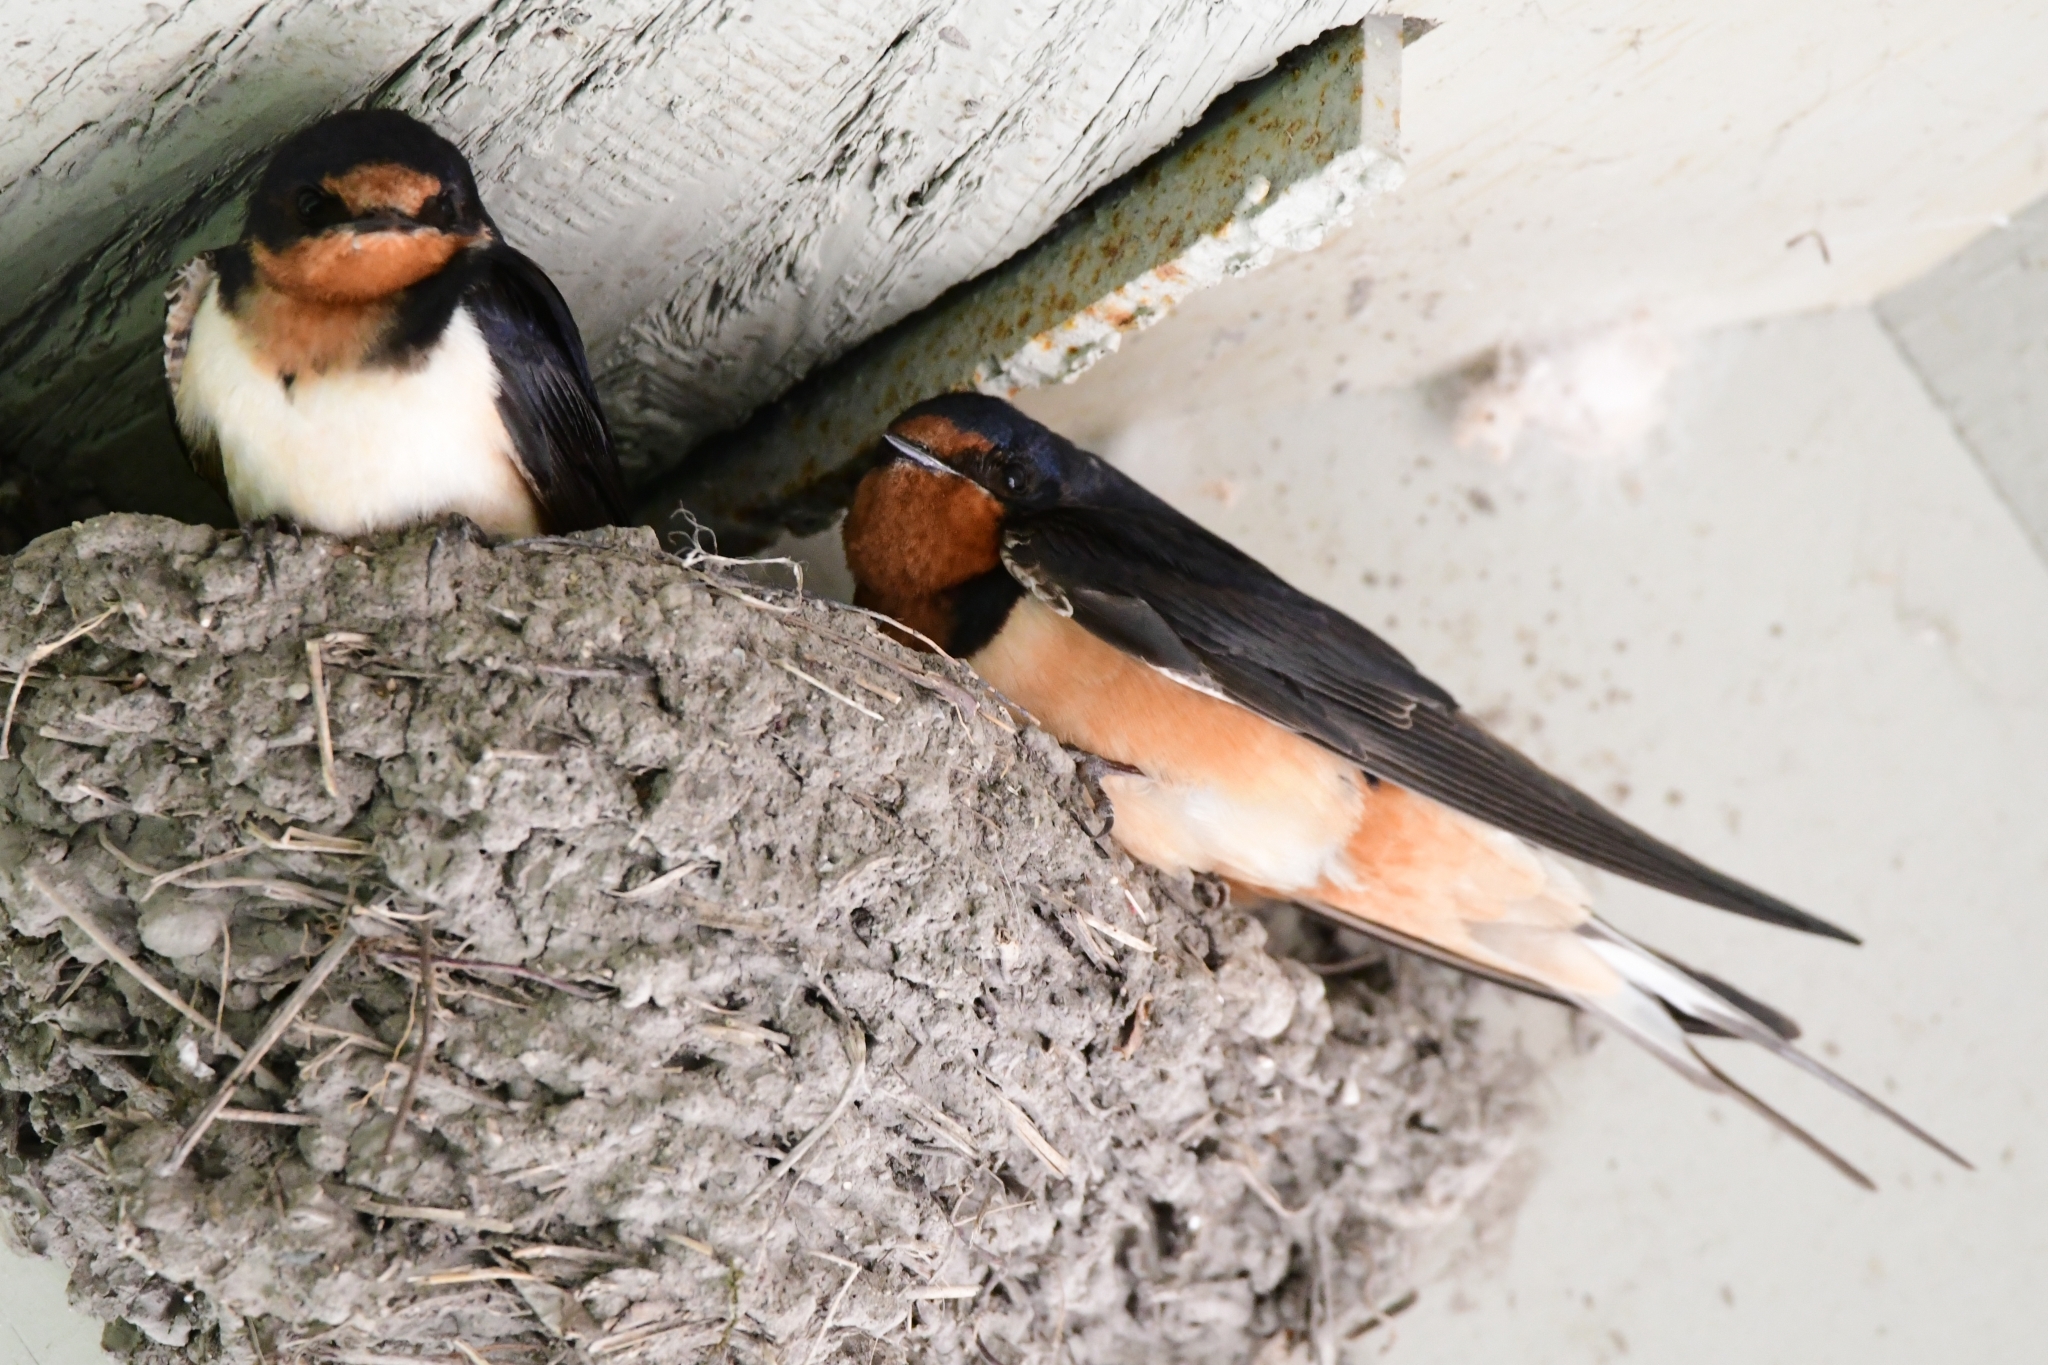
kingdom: Animalia
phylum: Chordata
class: Aves
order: Passeriformes
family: Hirundinidae
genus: Hirundo
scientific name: Hirundo rustica
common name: Barn swallow
